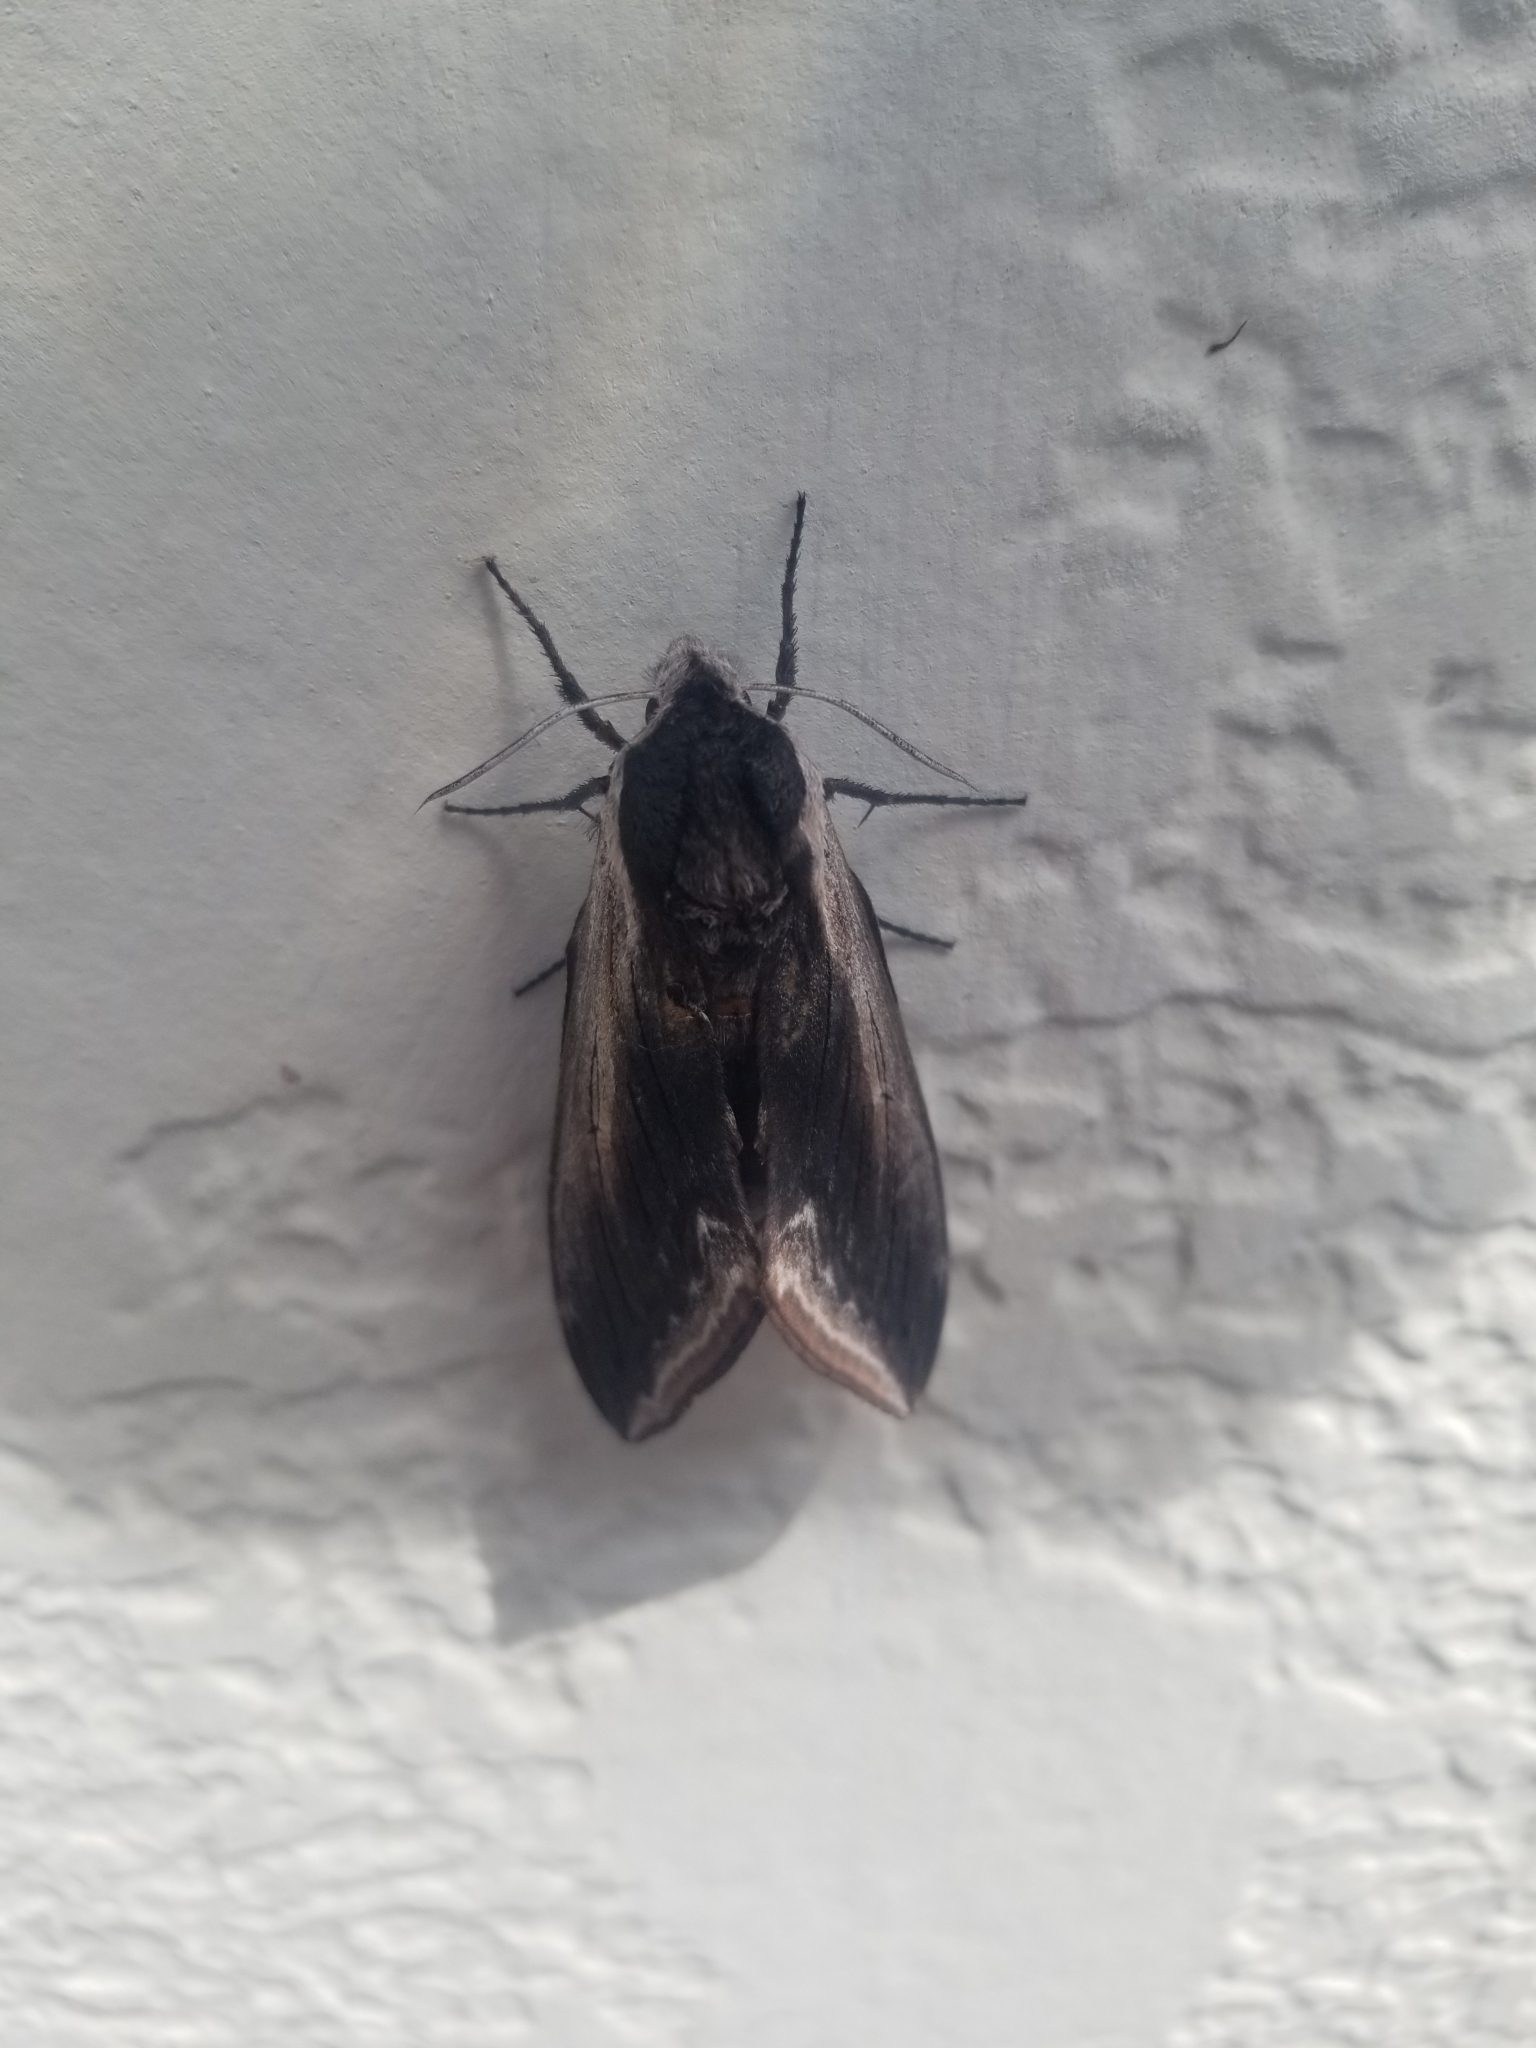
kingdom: Animalia
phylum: Arthropoda
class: Insecta
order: Lepidoptera
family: Sphingidae
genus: Sphinx
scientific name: Sphinx drupiferarum
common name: Wild cherry sphinx
